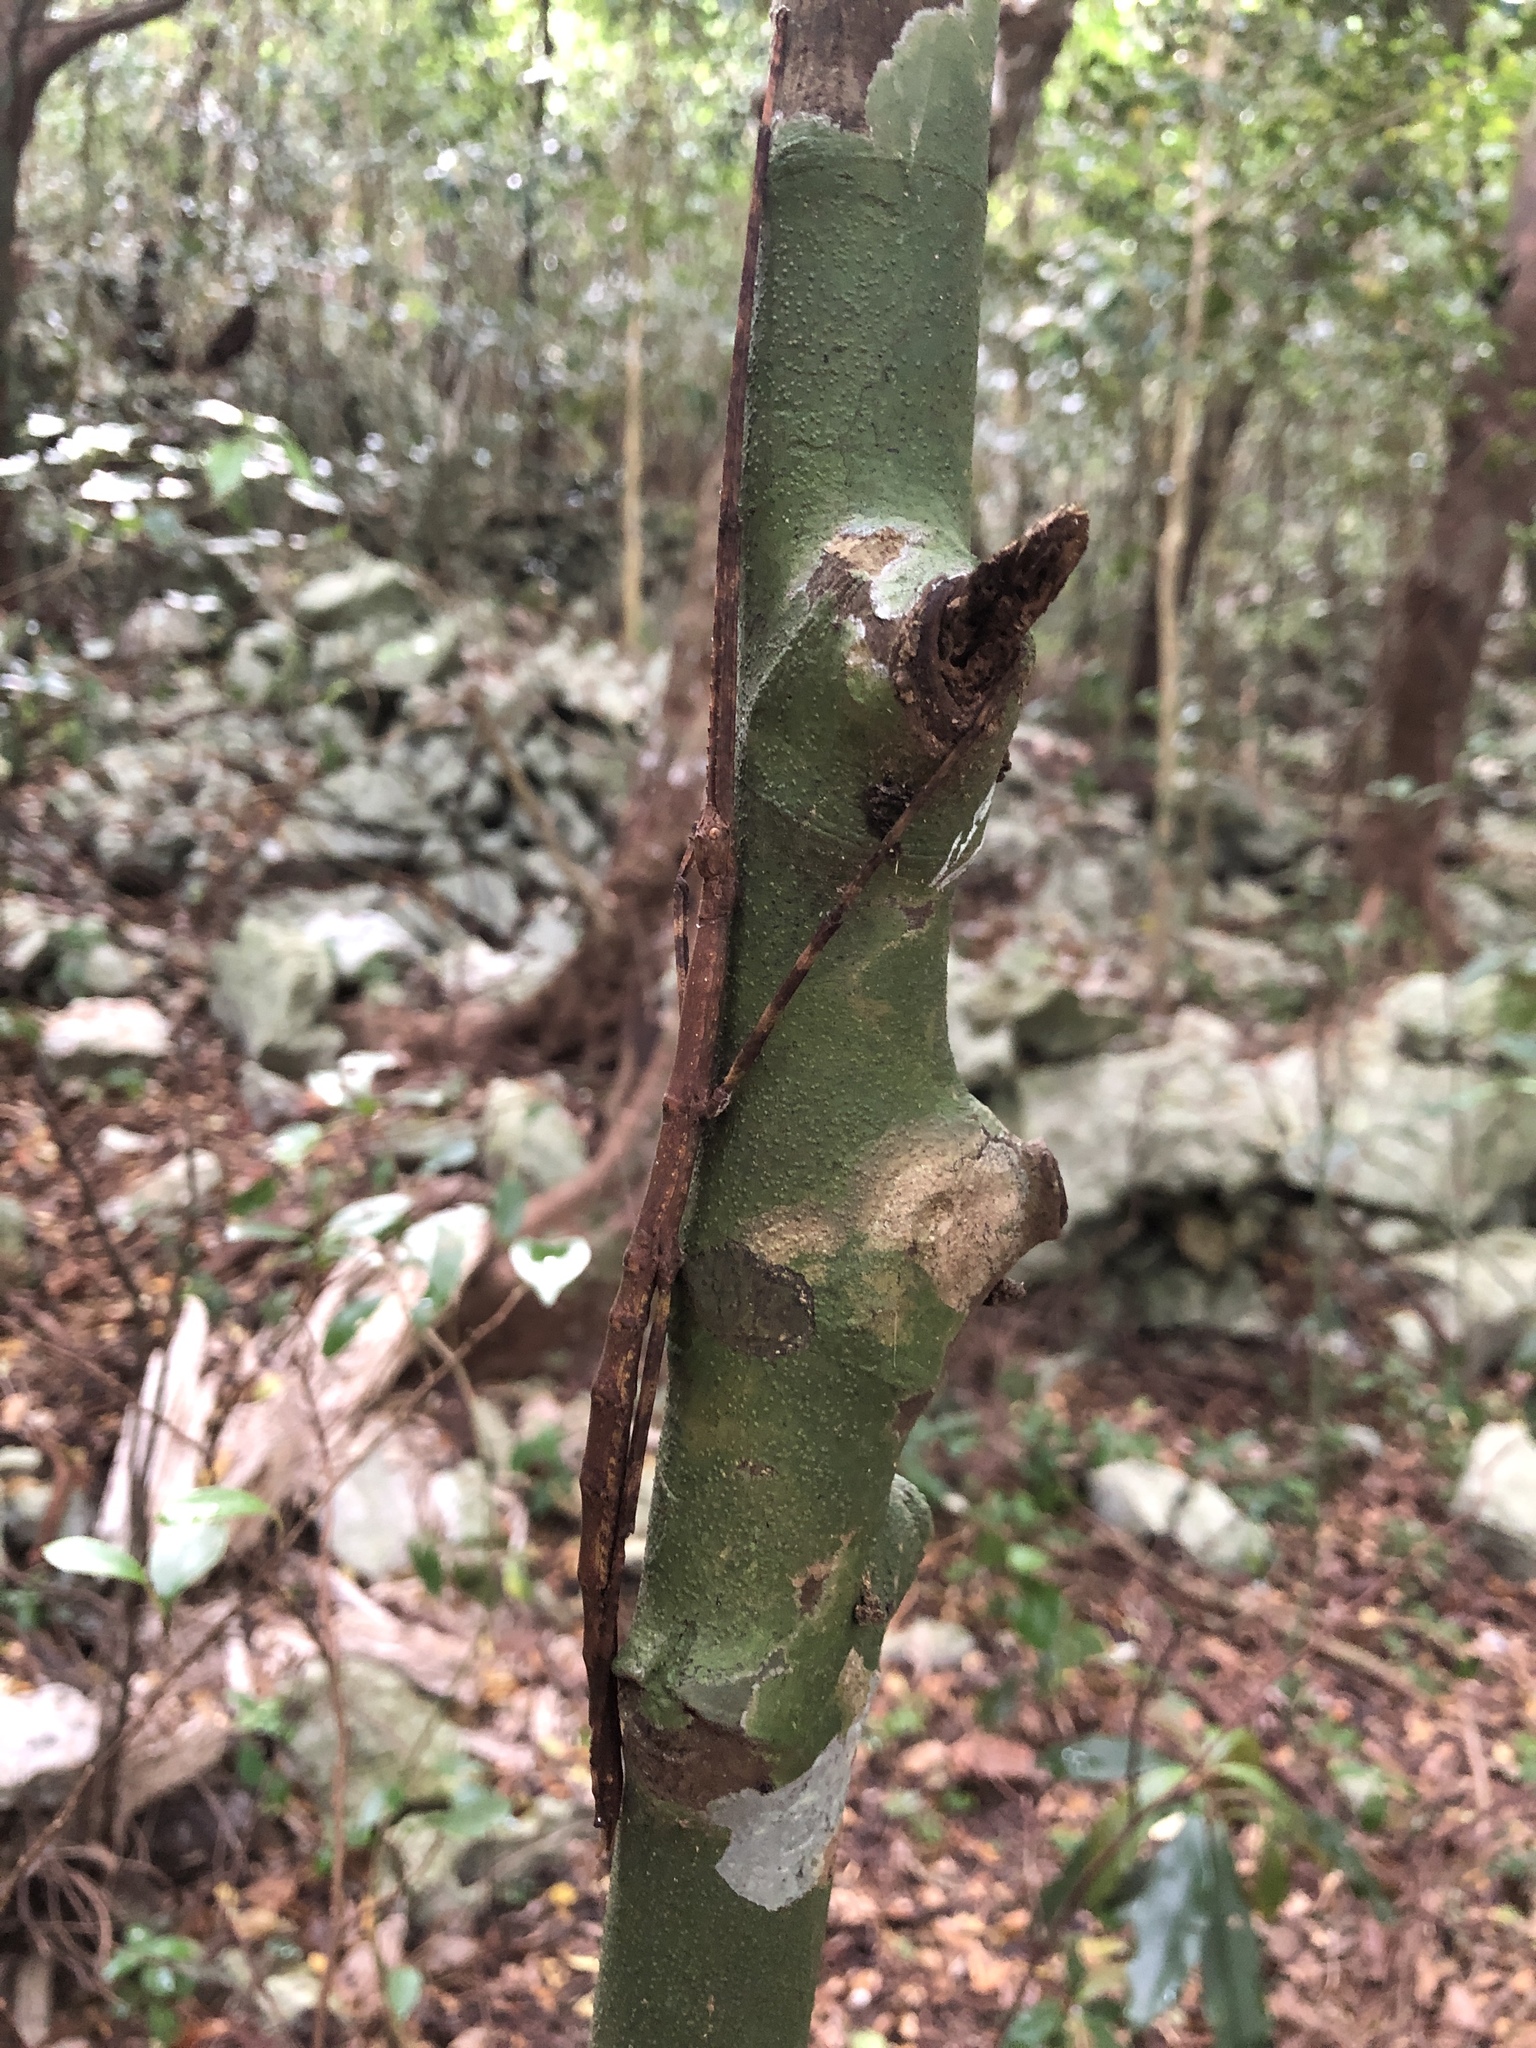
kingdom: Animalia
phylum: Arthropoda
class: Insecta
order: Phasmida
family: Phasmatidae
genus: Entoria
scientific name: Entoria miyakoensis
